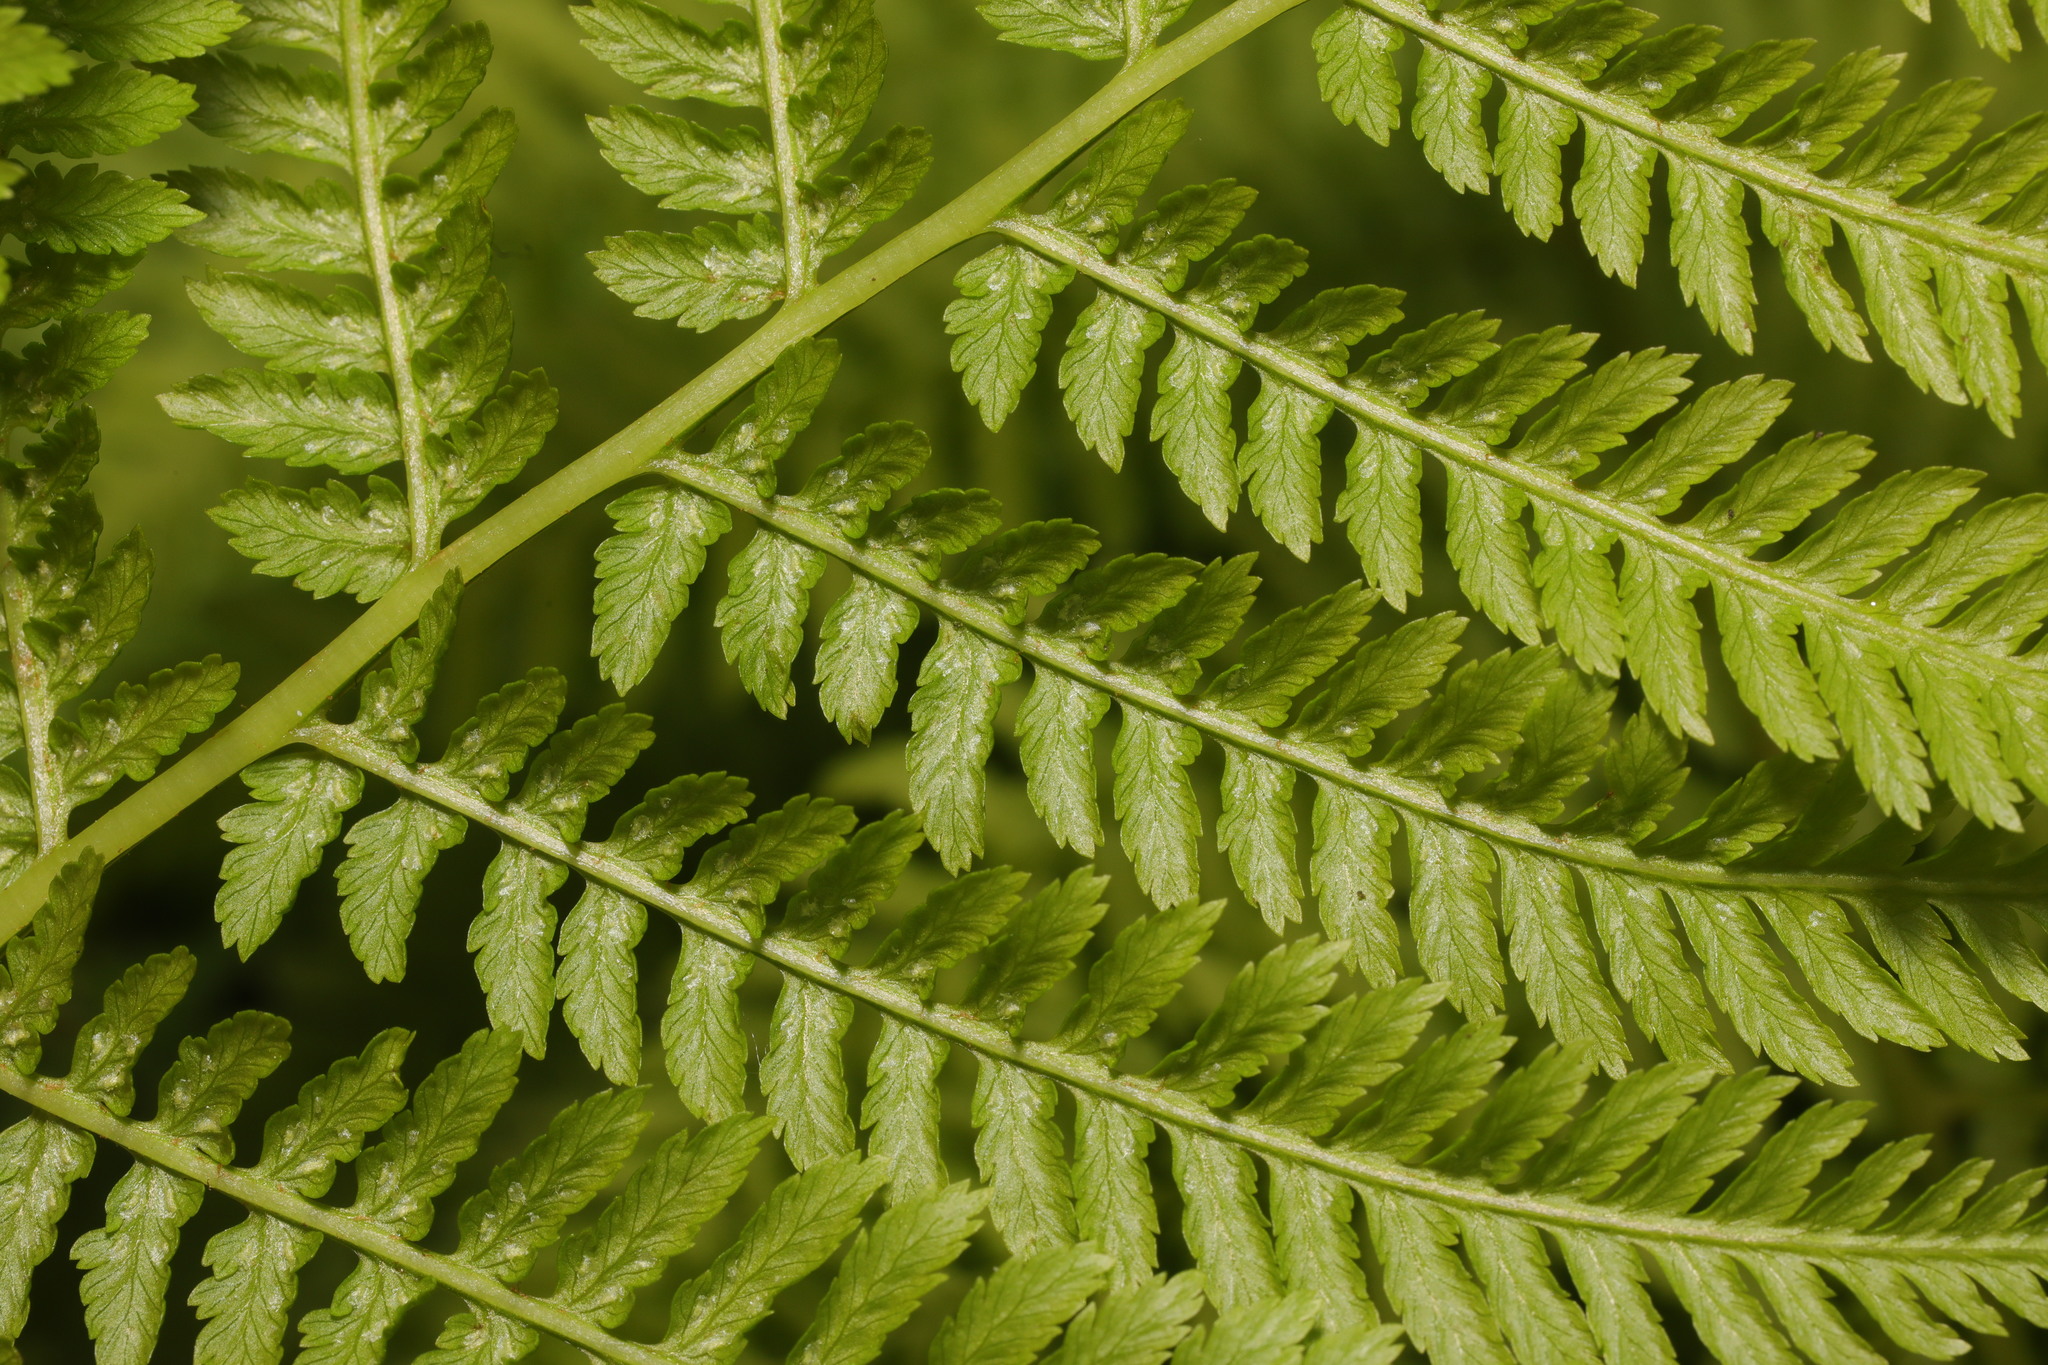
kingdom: Plantae
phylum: Tracheophyta
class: Polypodiopsida
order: Polypodiales
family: Athyriaceae
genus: Athyrium
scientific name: Athyrium filix-femina
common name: Lady fern
